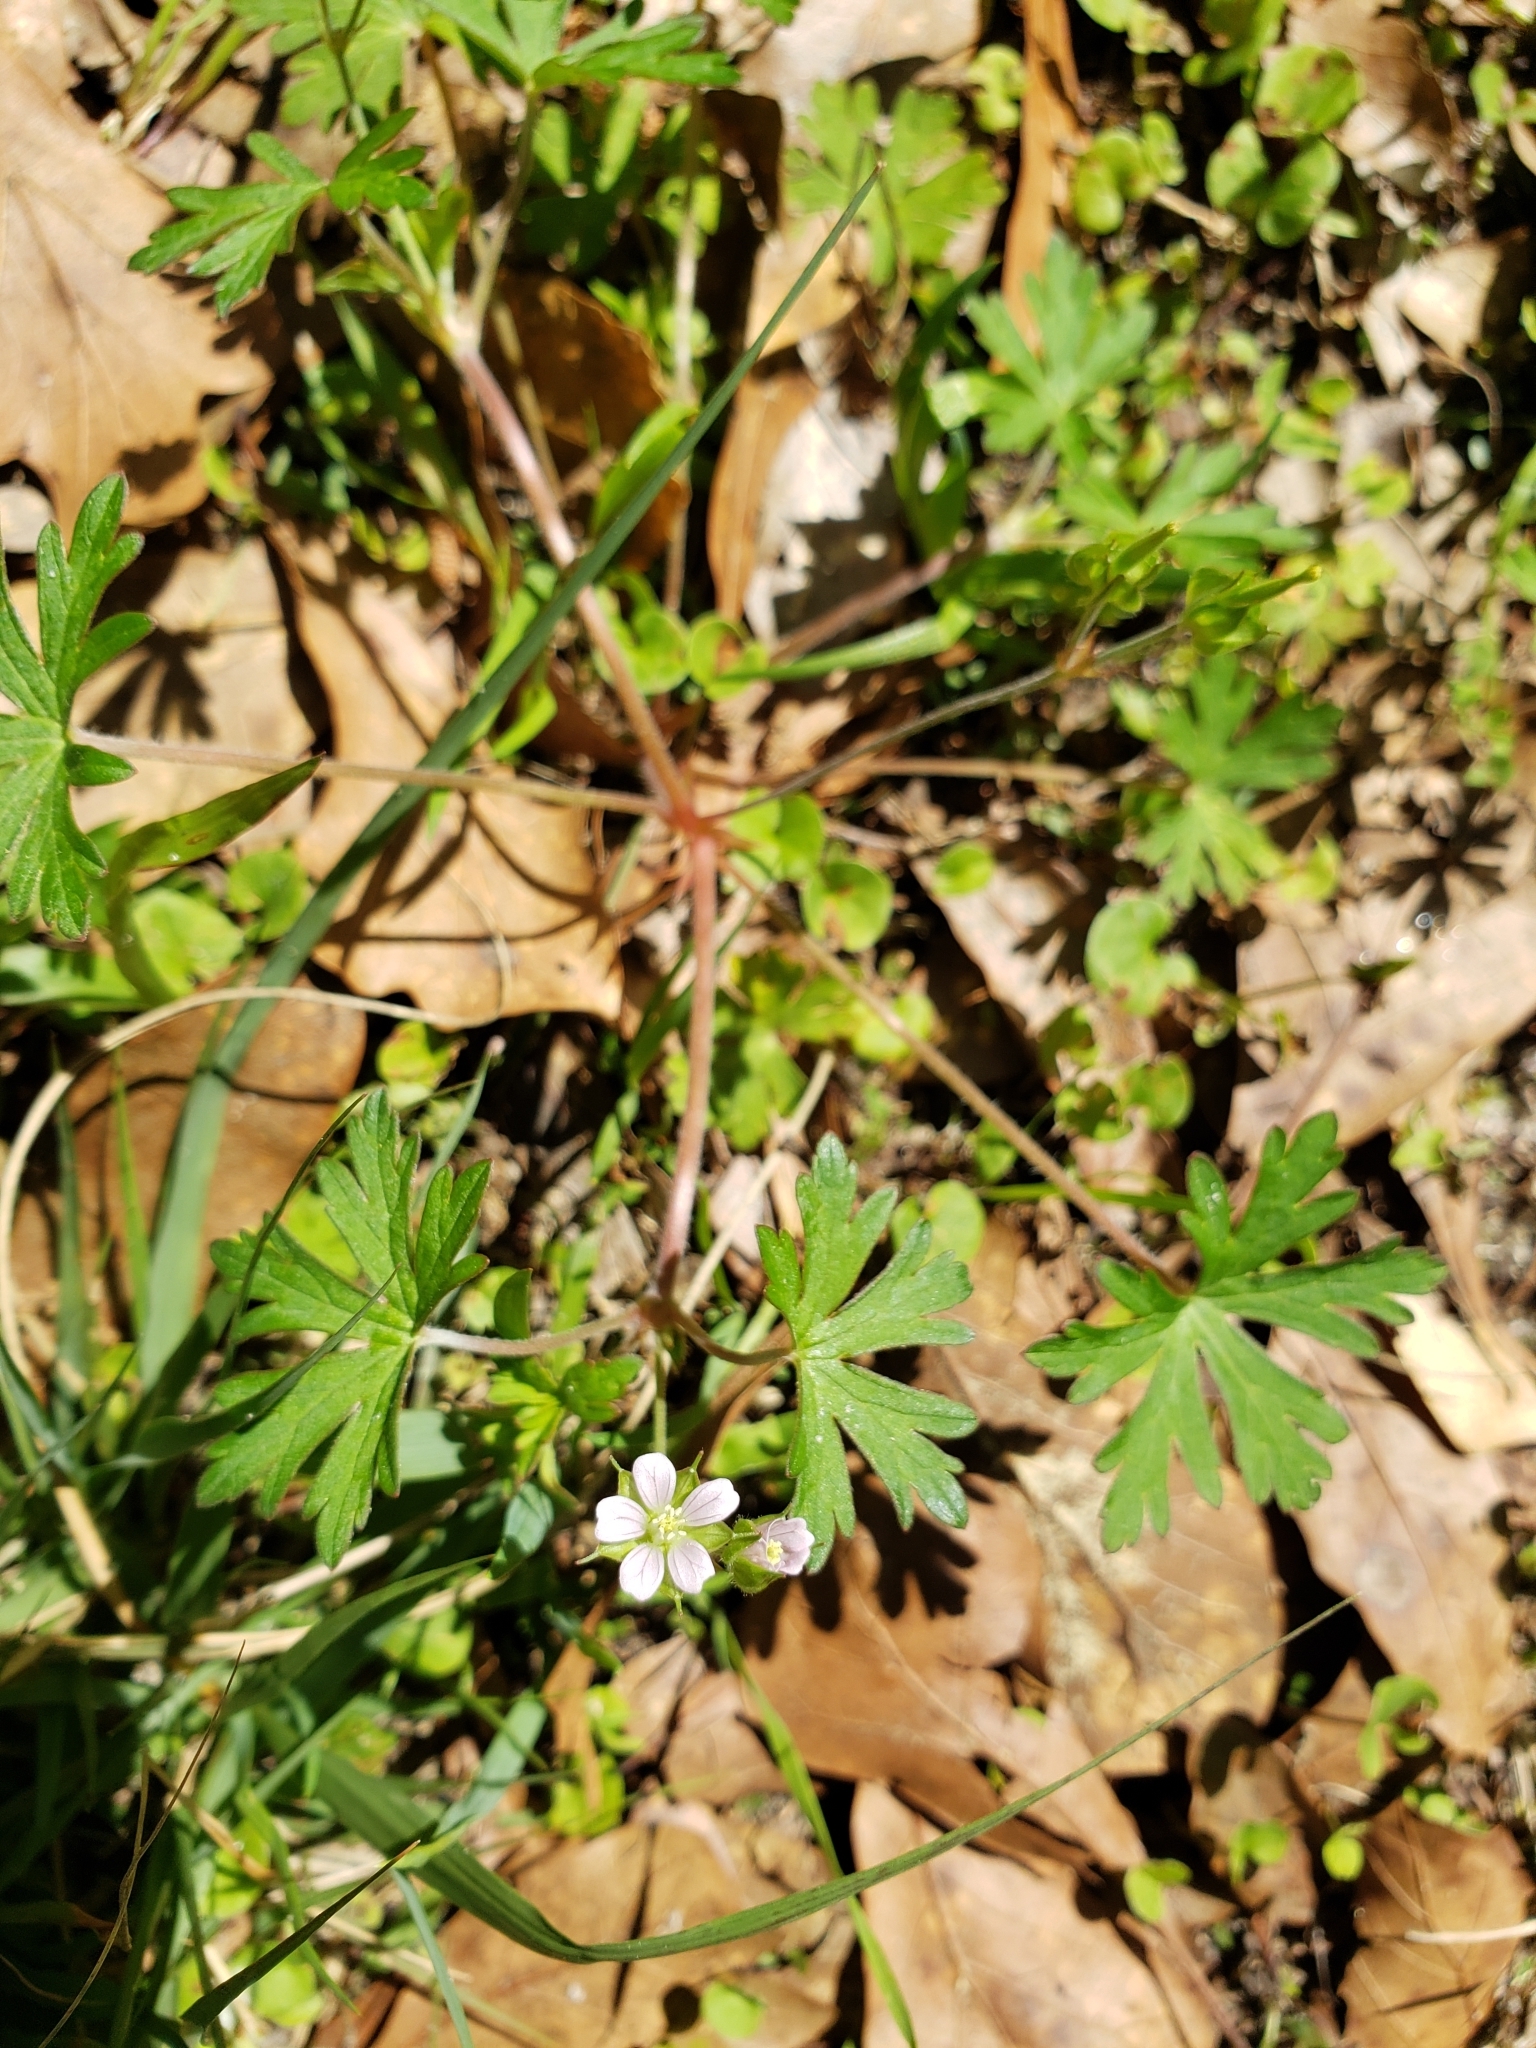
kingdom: Plantae
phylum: Tracheophyta
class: Magnoliopsida
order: Geraniales
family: Geraniaceae
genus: Geranium
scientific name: Geranium carolinianum
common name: Carolina crane's-bill
